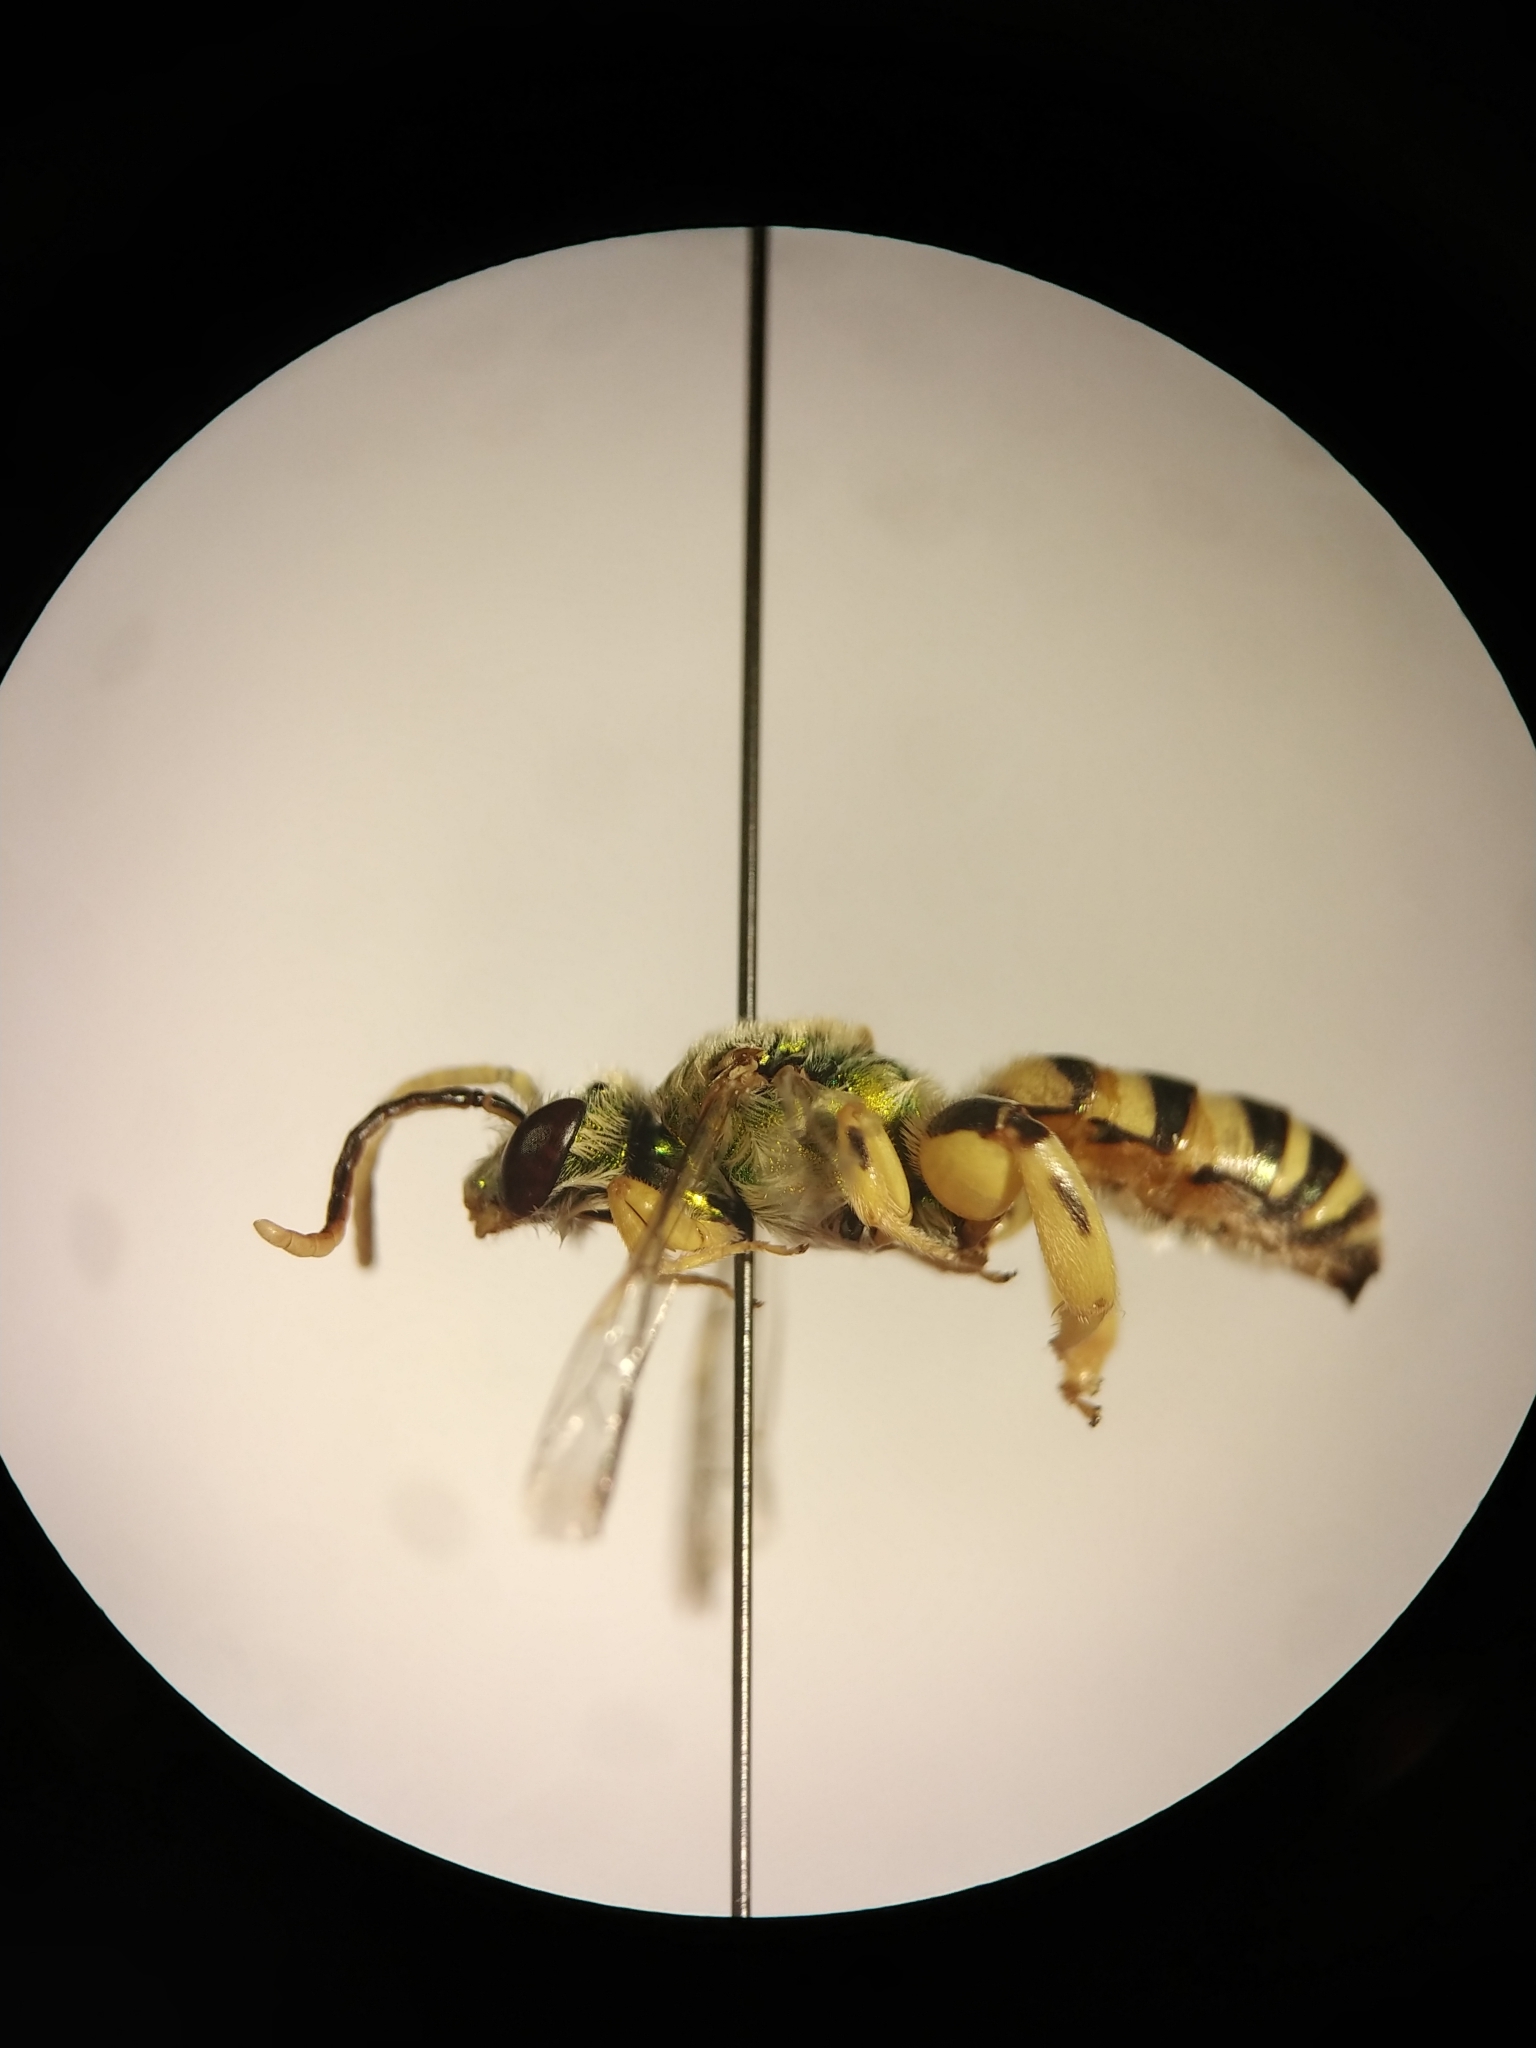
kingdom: Animalia
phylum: Arthropoda
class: Insecta
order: Hymenoptera
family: Halictidae
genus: Agapostemon
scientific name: Agapostemon femoratus
